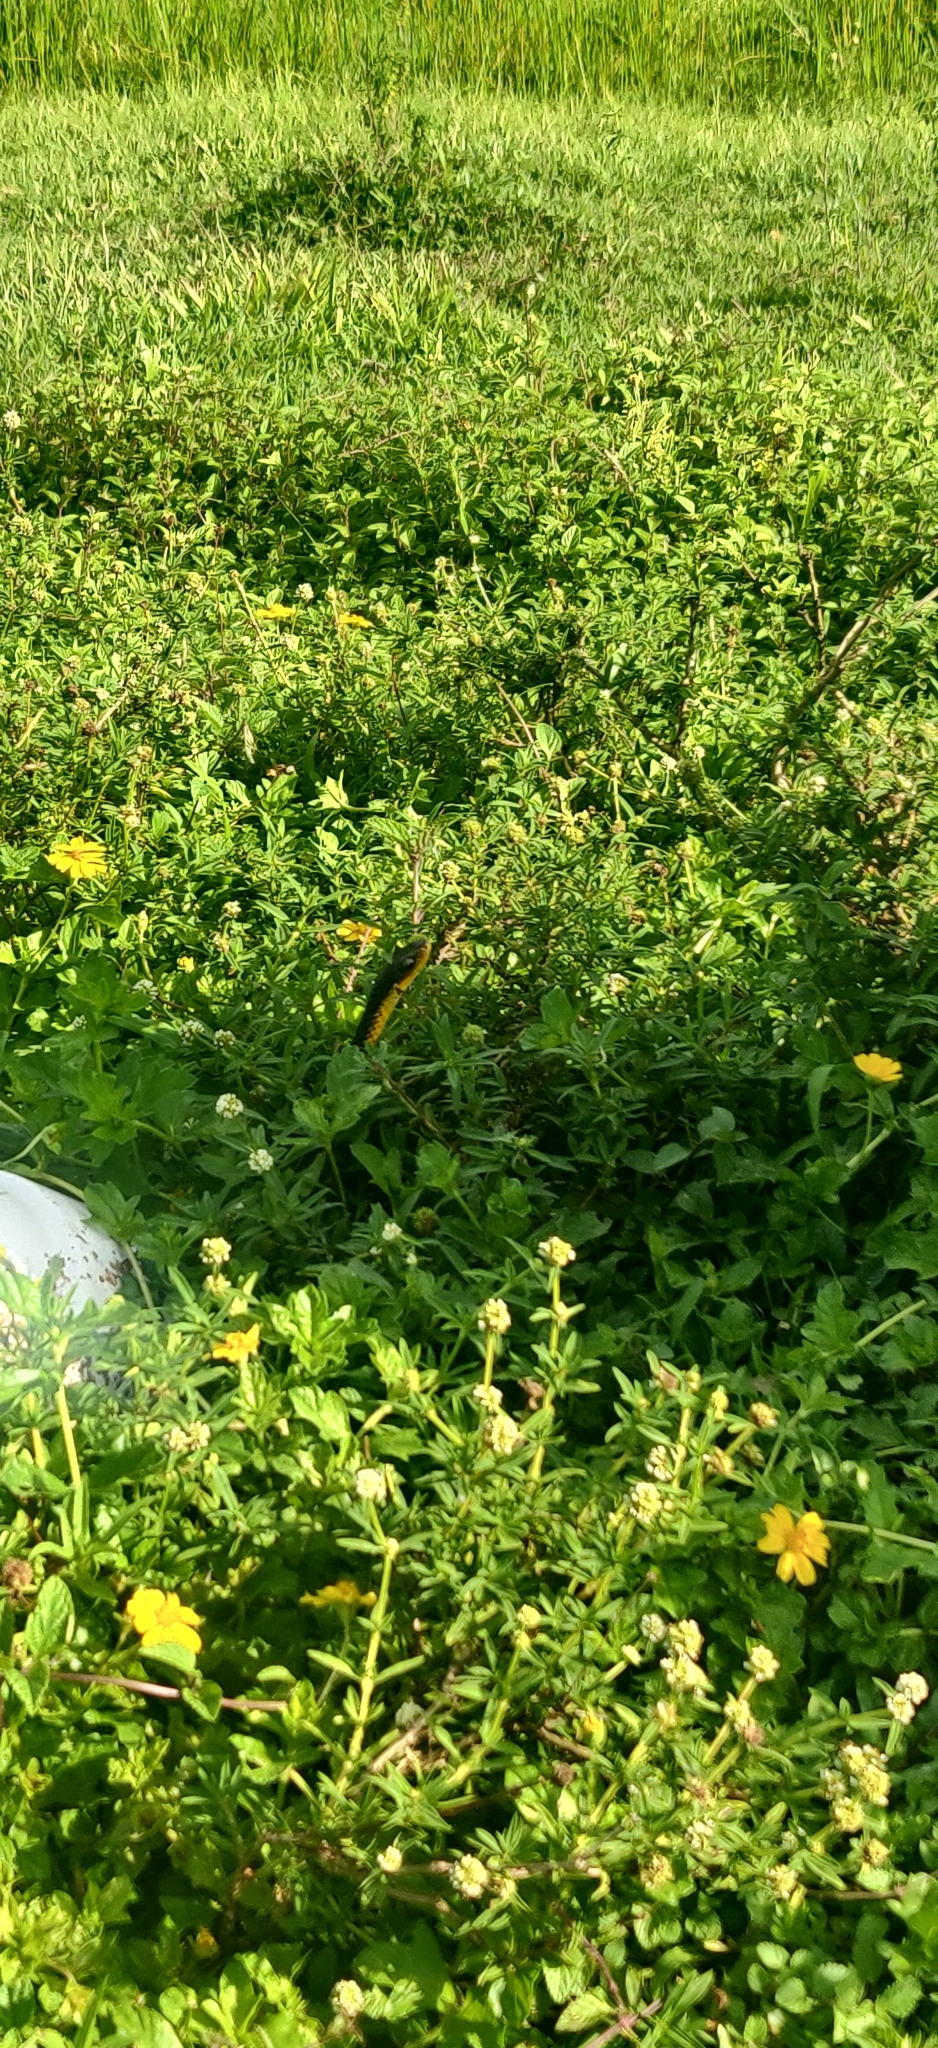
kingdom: Animalia
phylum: Chordata
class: Squamata
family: Colubridae
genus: Chironius
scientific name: Chironius carinatus
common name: Sipo
